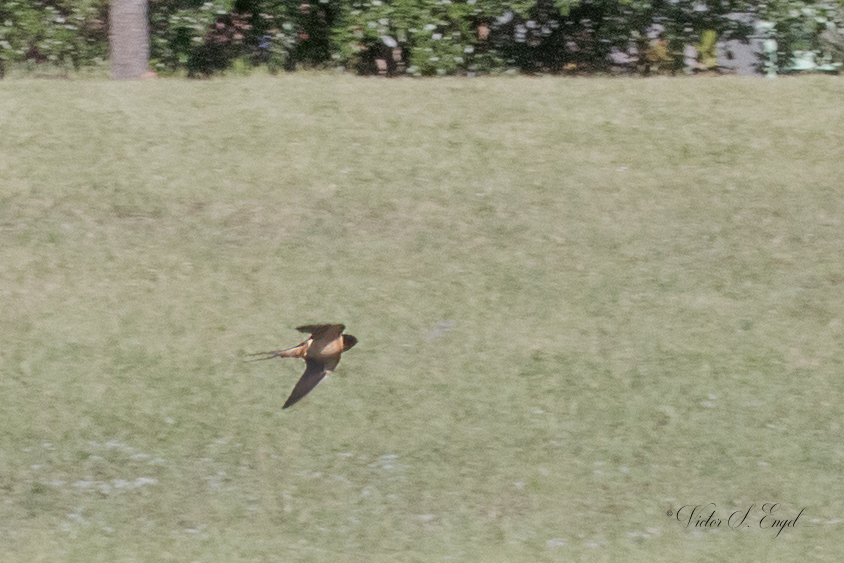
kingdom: Animalia
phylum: Chordata
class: Aves
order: Passeriformes
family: Hirundinidae
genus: Hirundo
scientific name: Hirundo rustica
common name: Barn swallow
